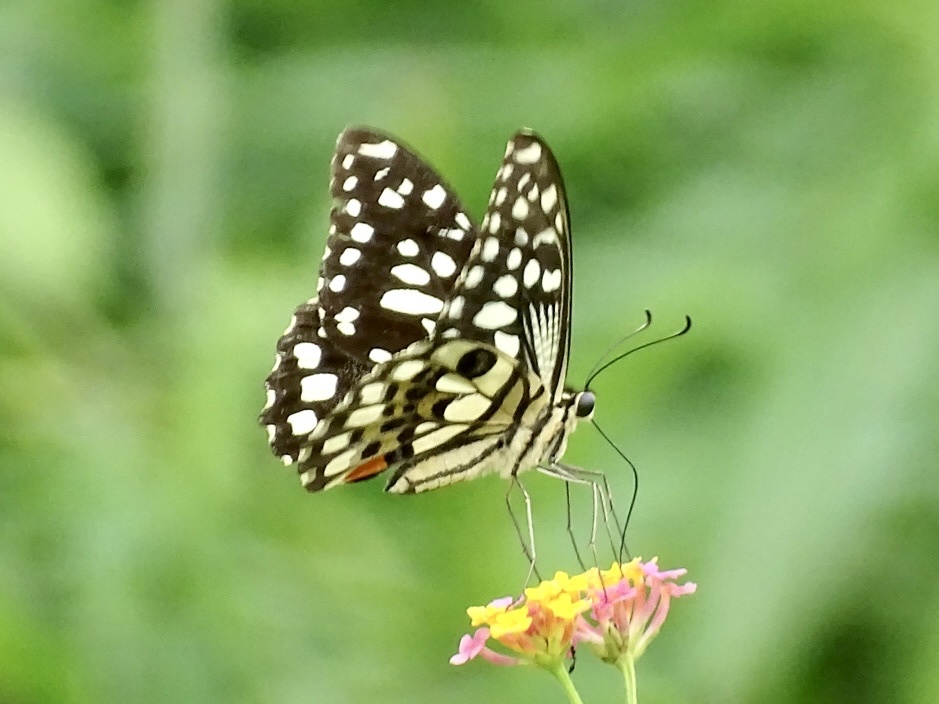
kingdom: Animalia
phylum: Arthropoda
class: Insecta
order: Lepidoptera
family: Papilionidae
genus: Papilio
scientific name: Papilio demoleus
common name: Lime butterfly
